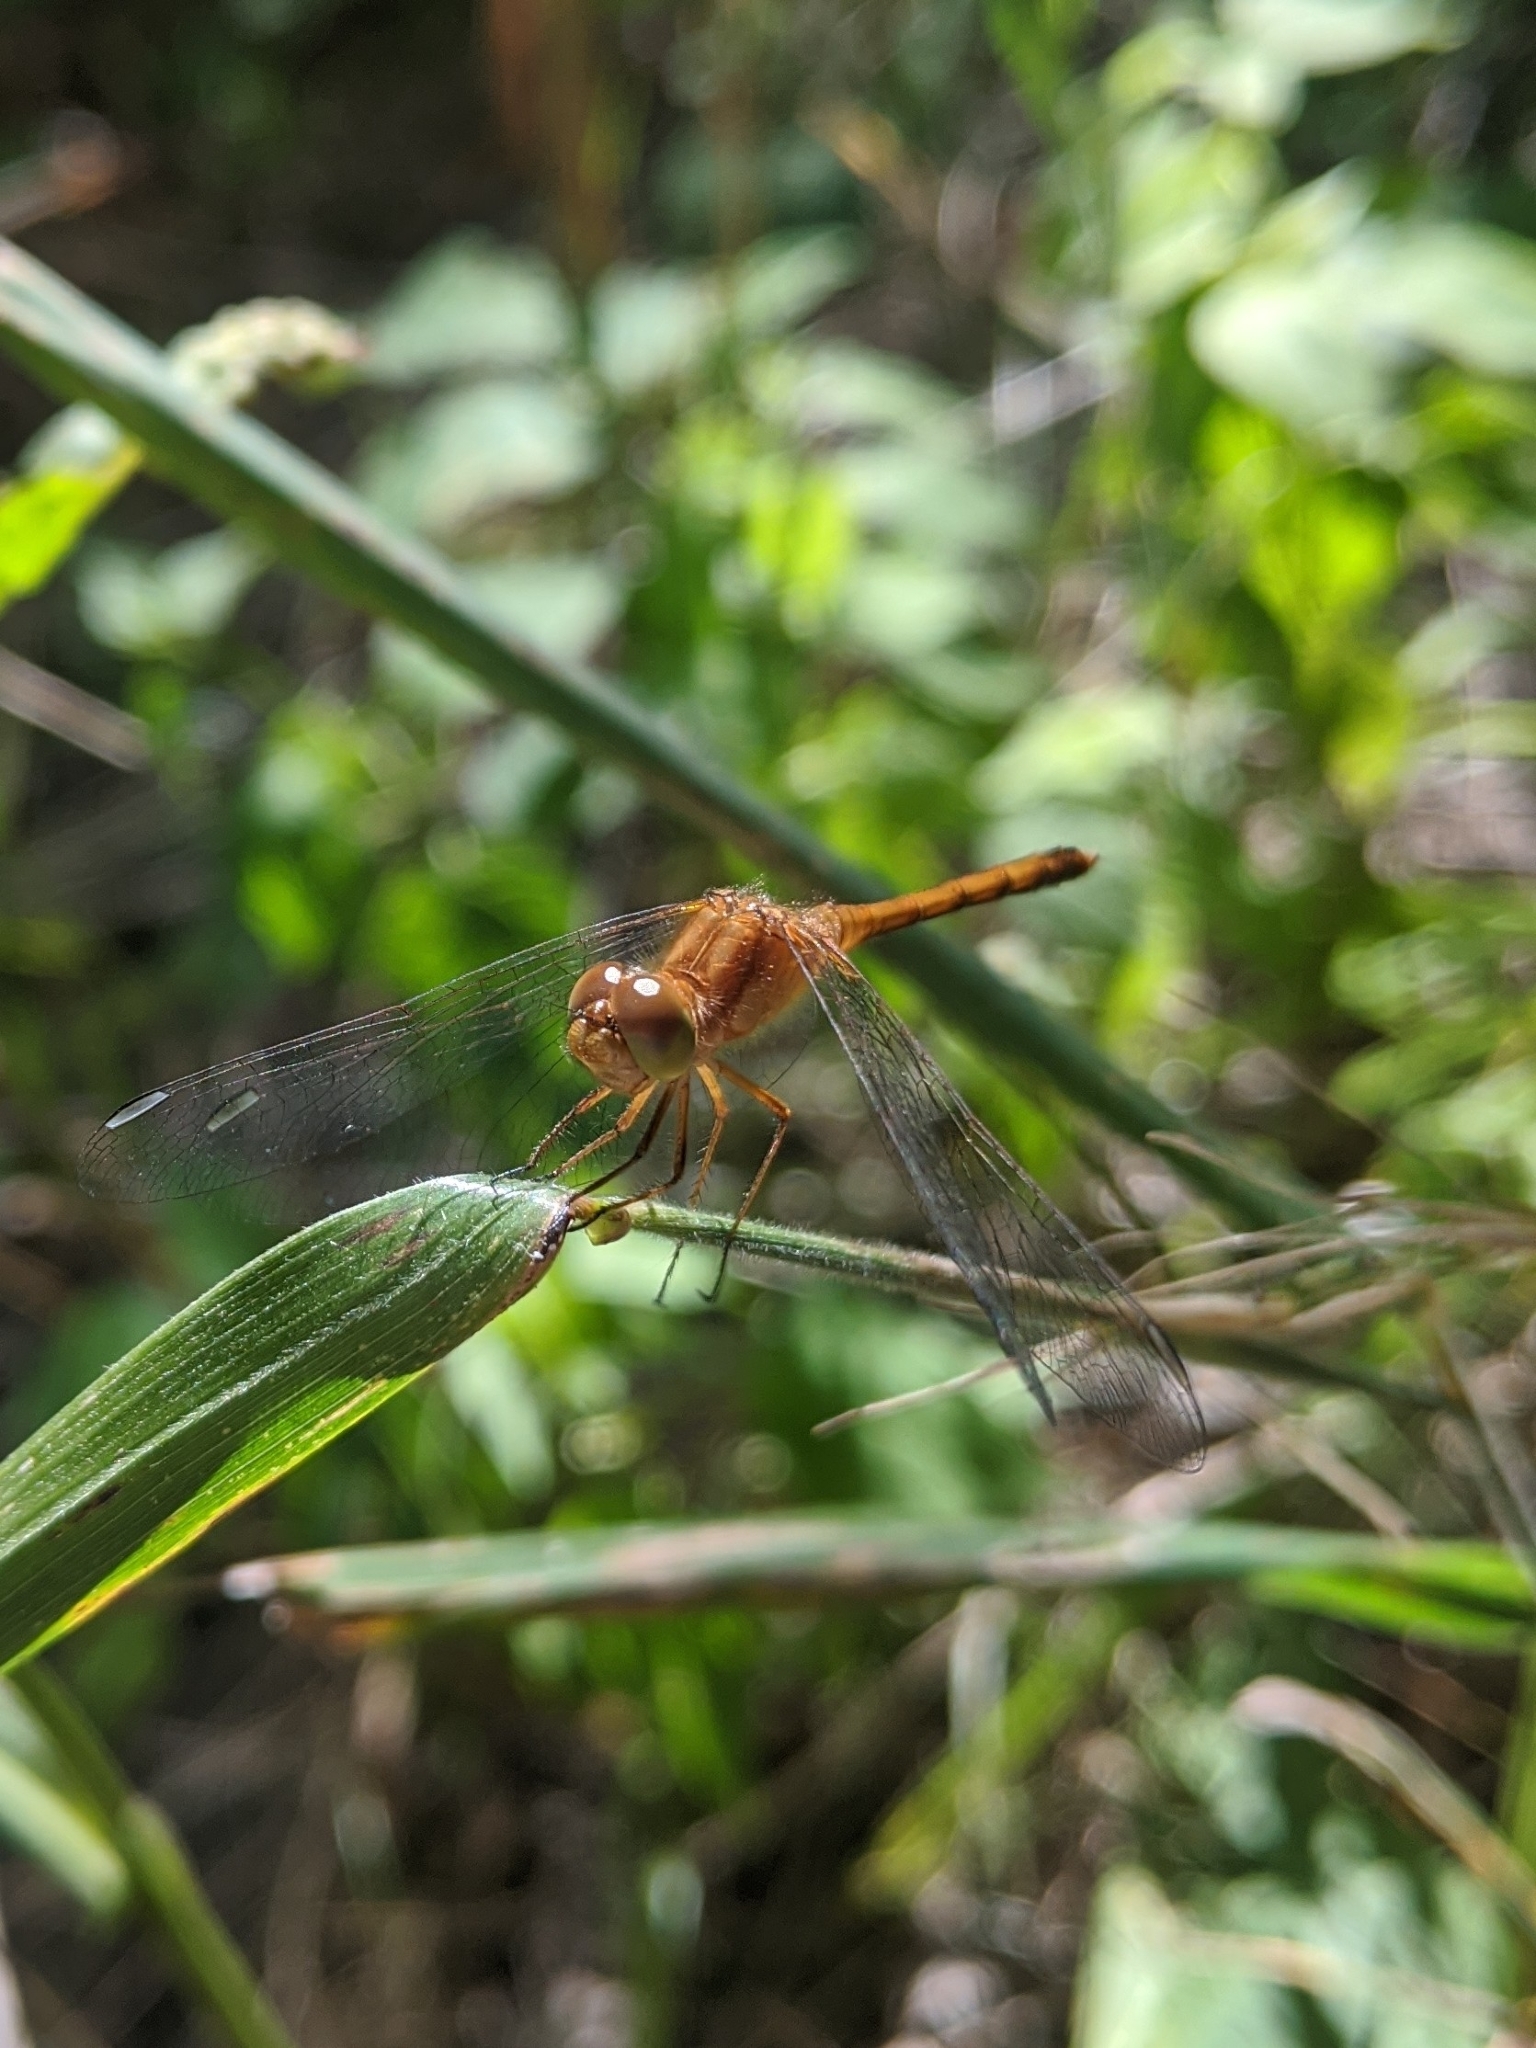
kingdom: Animalia
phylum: Arthropoda
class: Insecta
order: Odonata
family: Libellulidae
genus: Sympetrum
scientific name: Sympetrum vicinum
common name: Autumn meadowhawk
